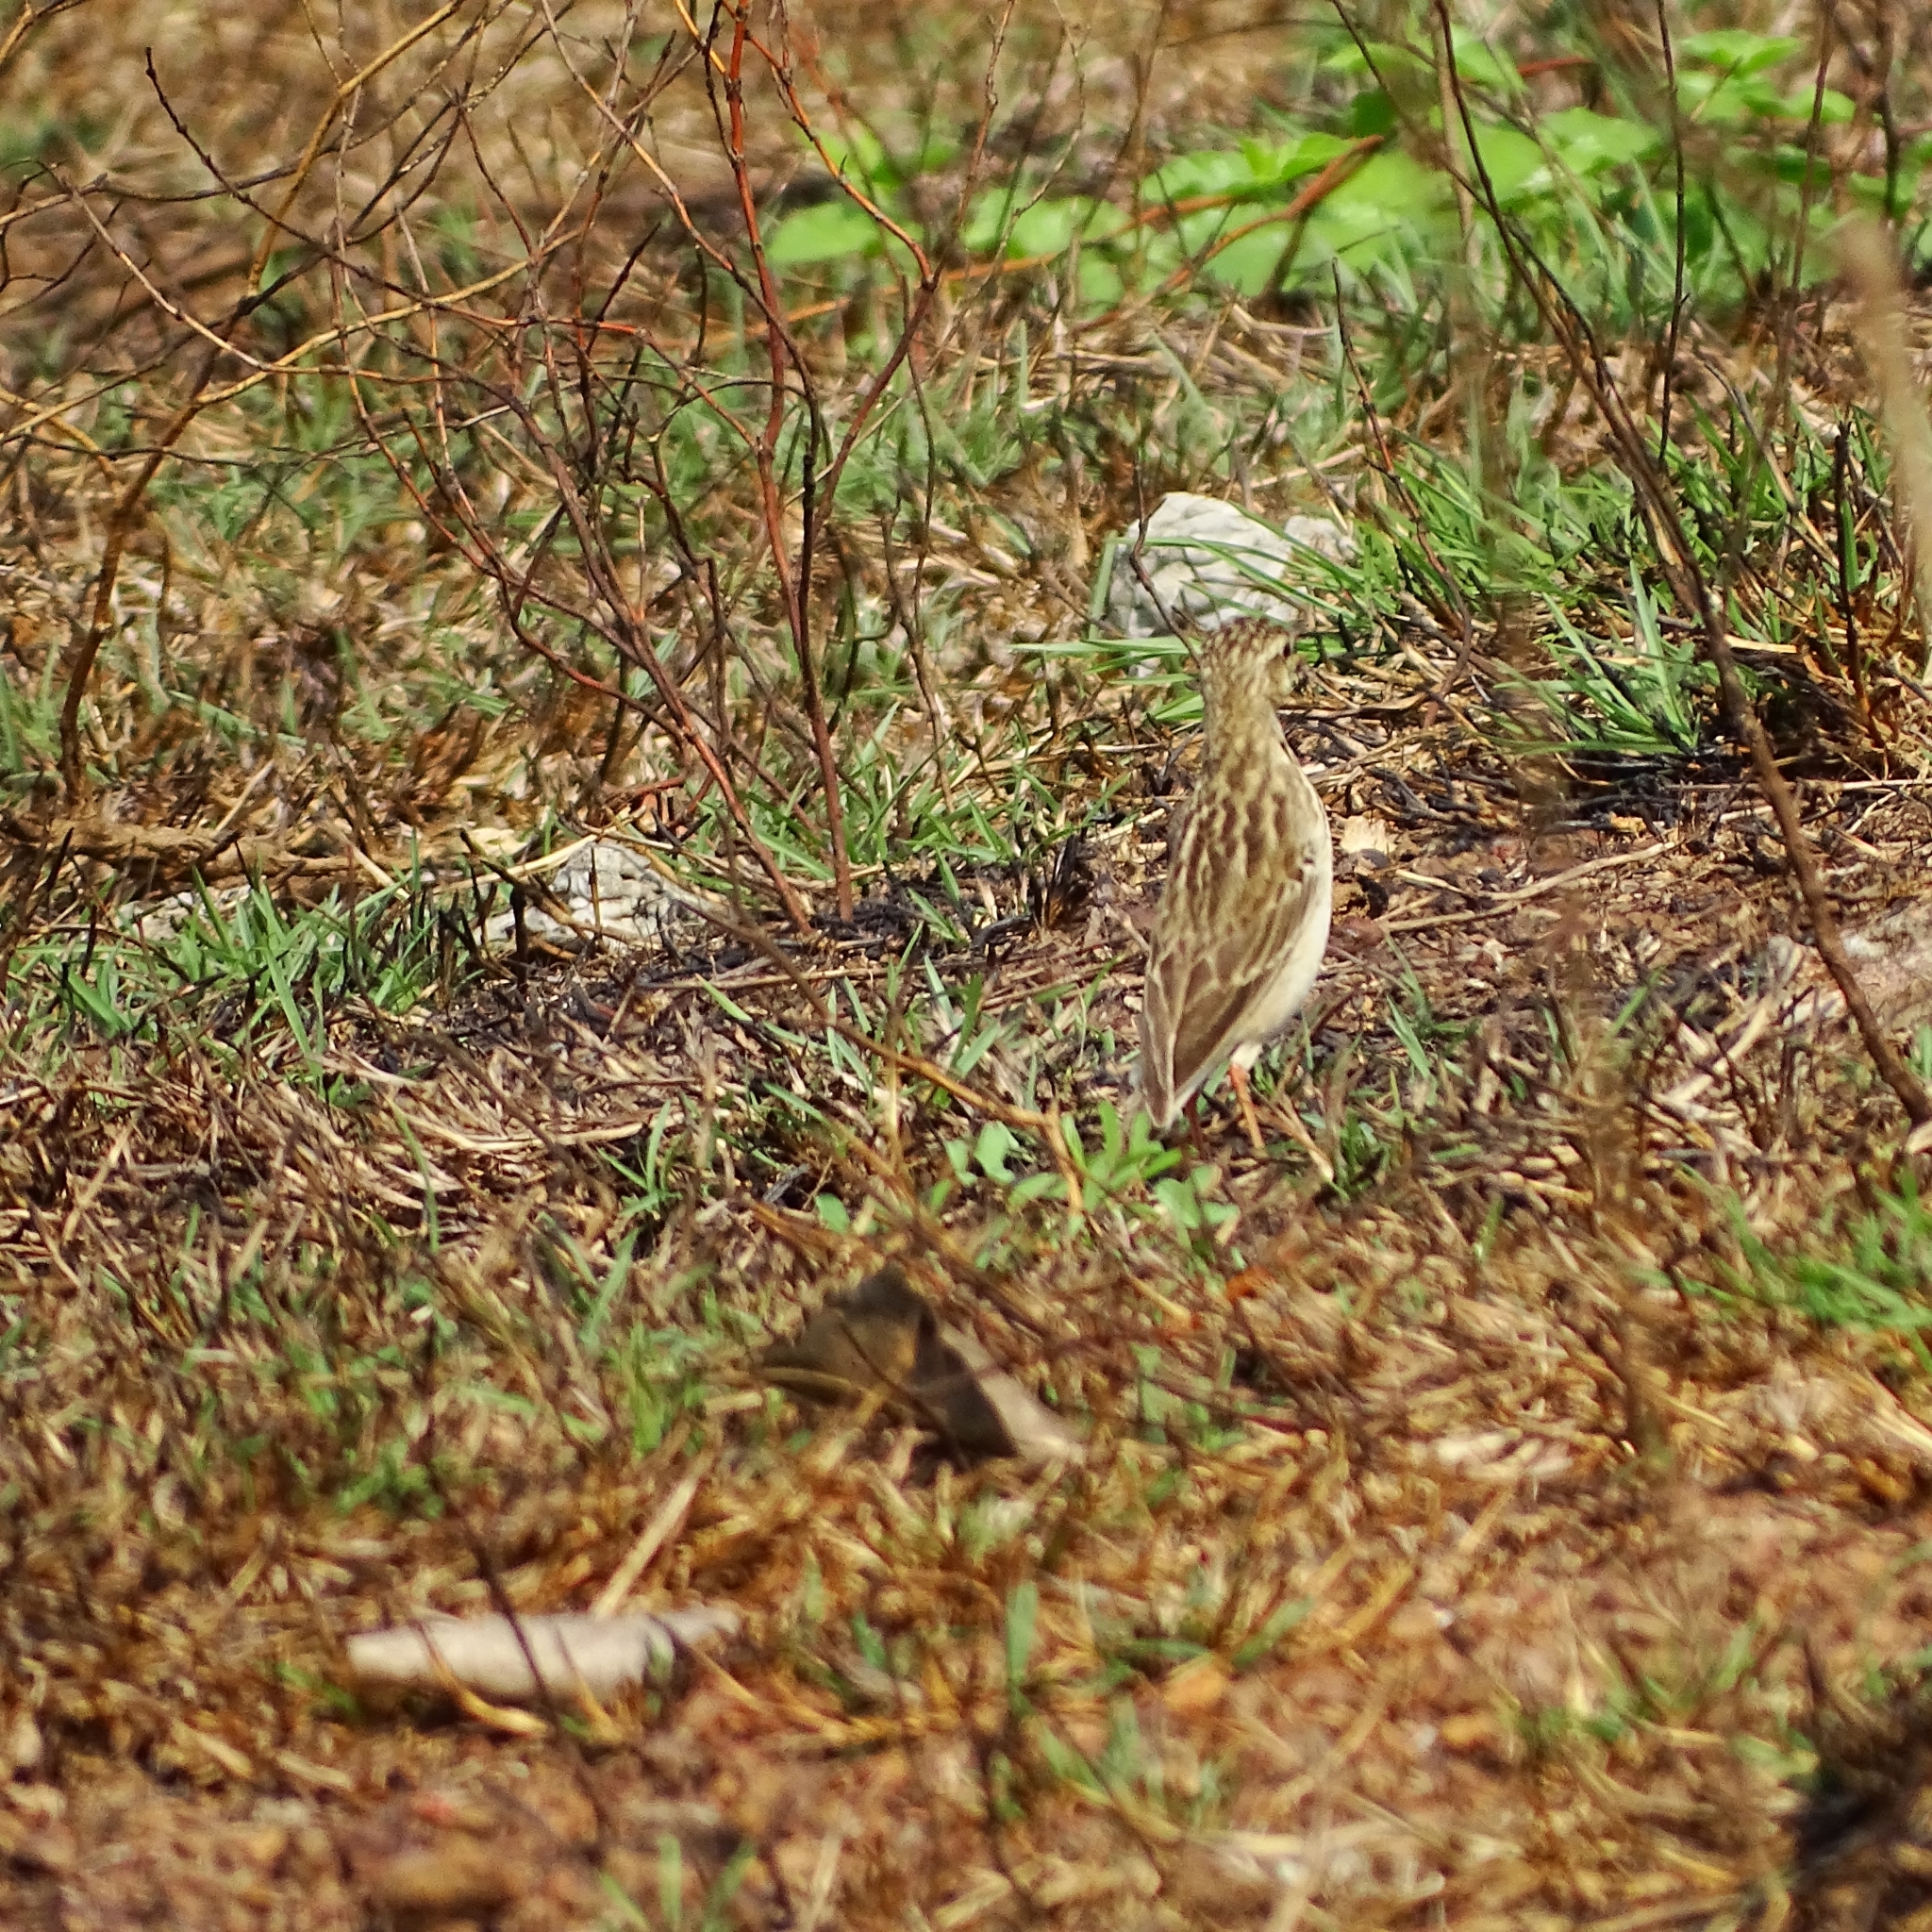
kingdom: Animalia
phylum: Chordata
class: Aves
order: Passeriformes
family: Motacillidae
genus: Anthus
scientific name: Anthus rufulus
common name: Paddyfield pipit
